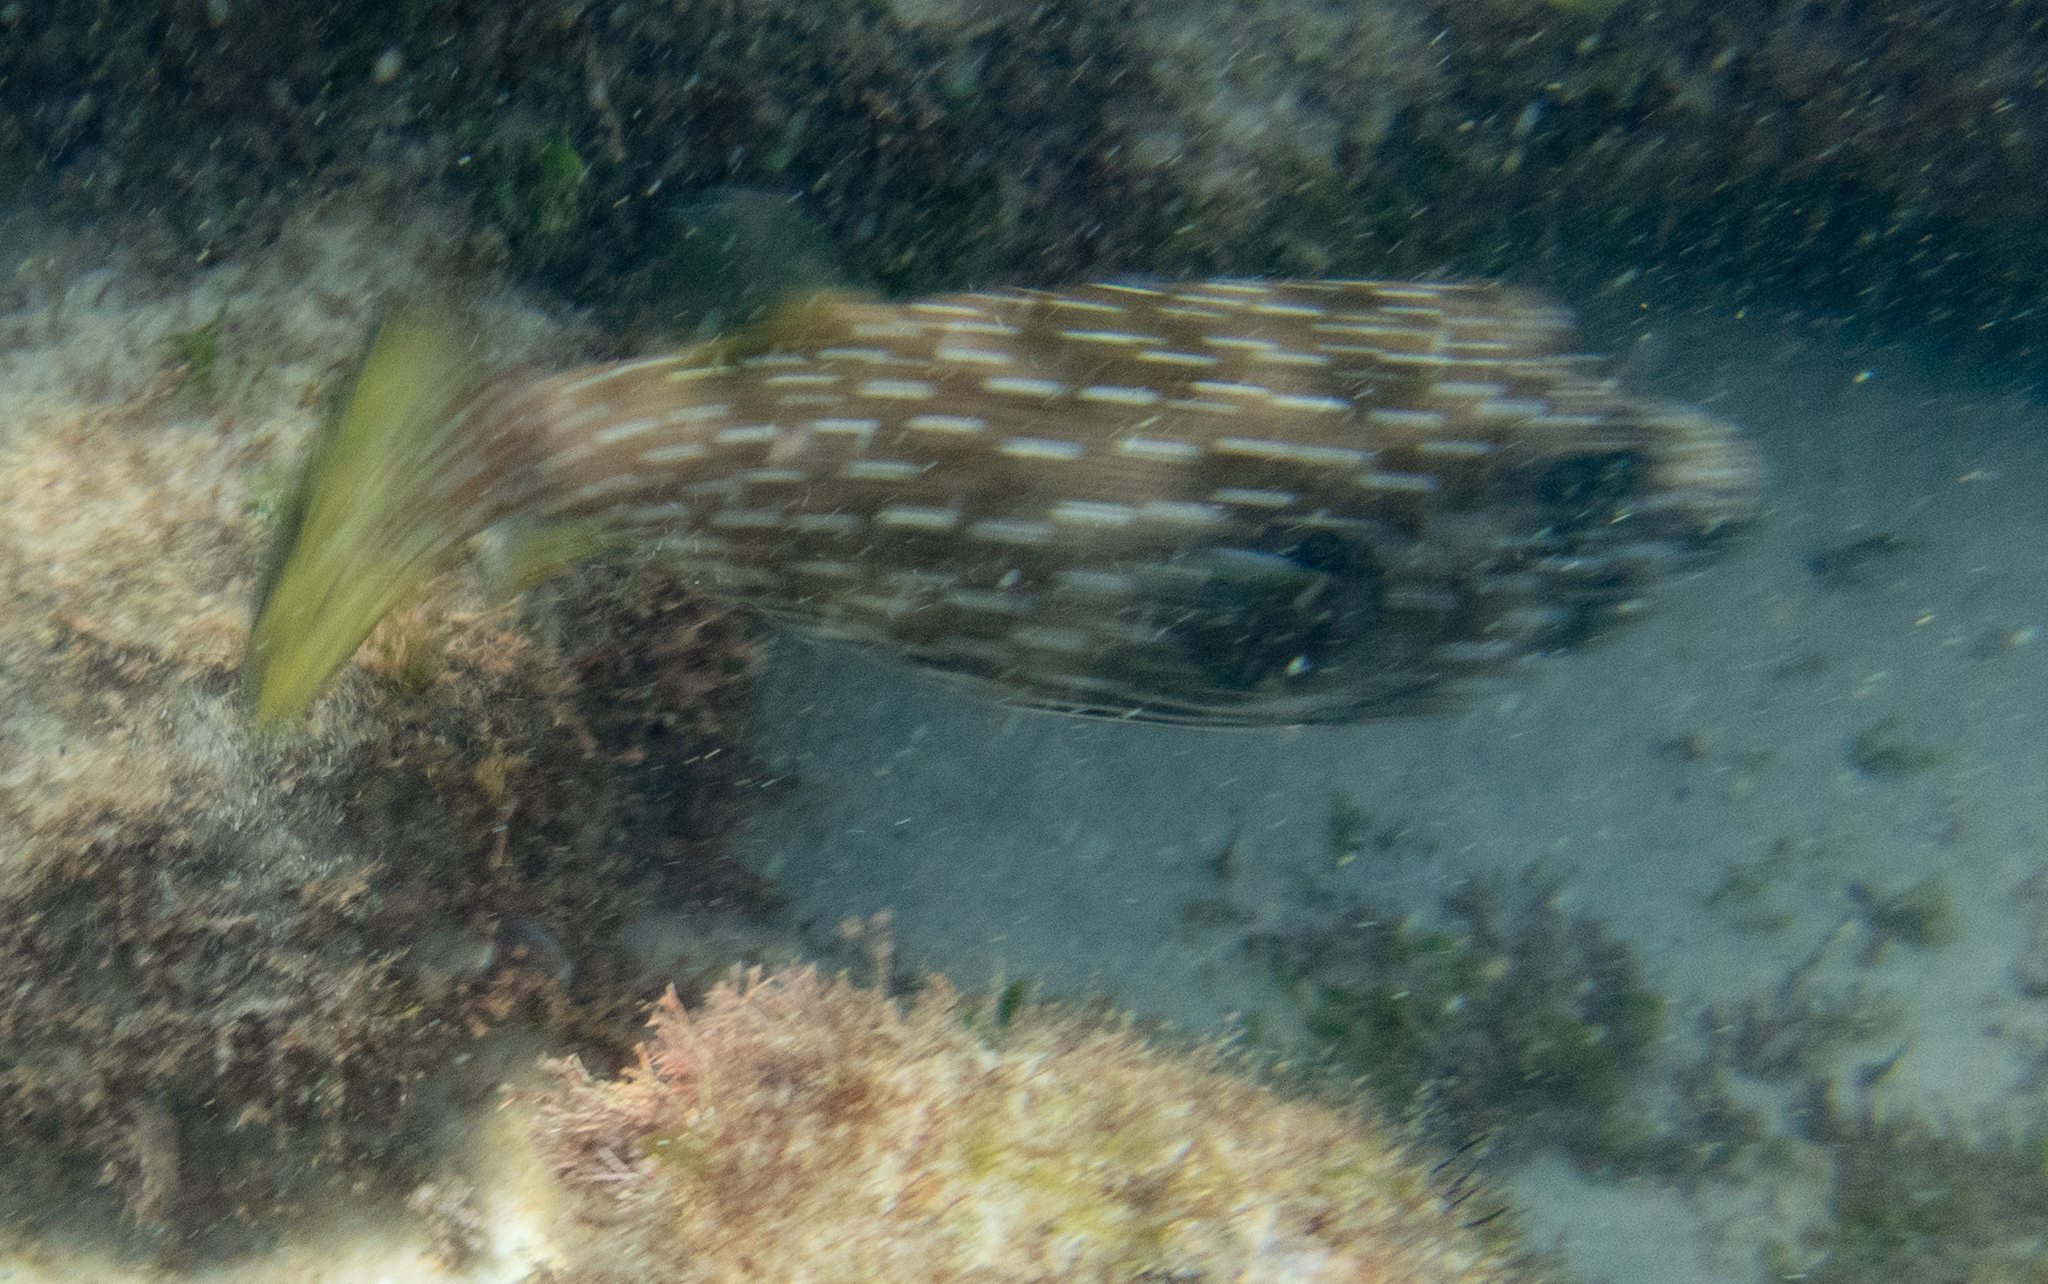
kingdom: Animalia
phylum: Chordata
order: Tetraodontiformes
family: Tetraodontidae
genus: Arothron
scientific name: Arothron hispidus
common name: Stripebelly puffer
